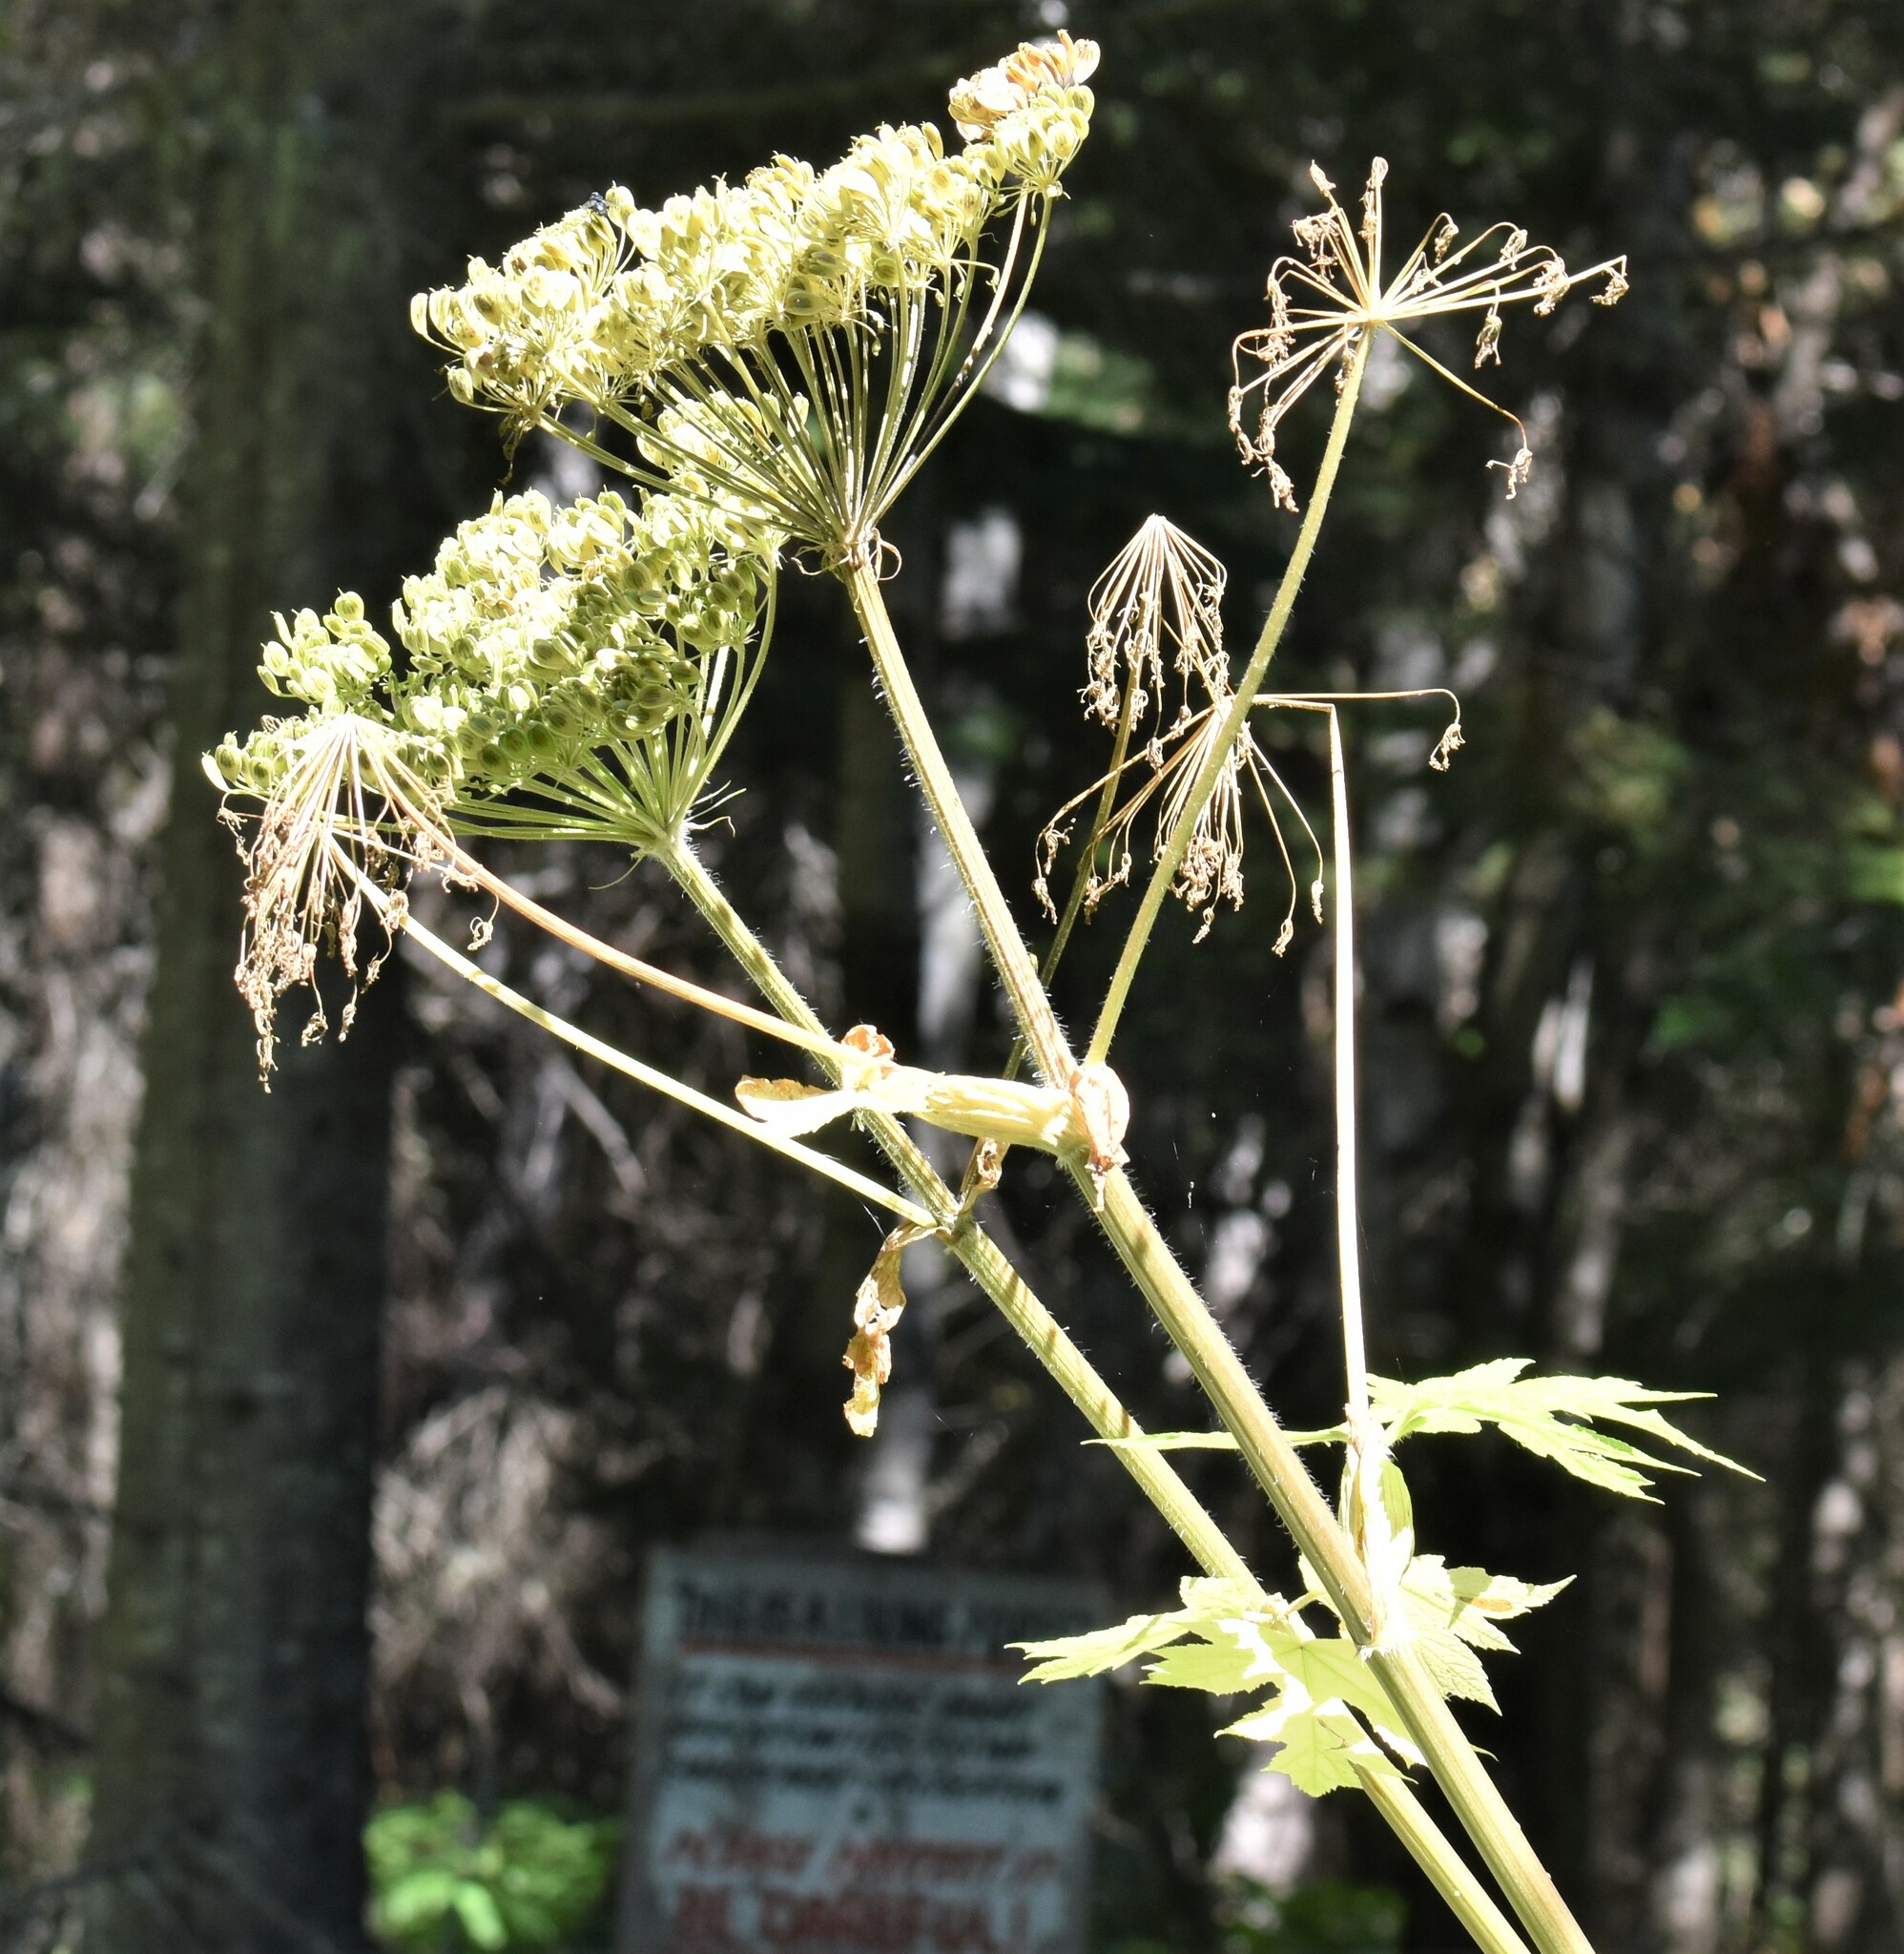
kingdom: Plantae
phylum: Tracheophyta
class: Magnoliopsida
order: Apiales
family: Apiaceae
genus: Heracleum
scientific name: Heracleum maximum
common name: American cow parsnip
